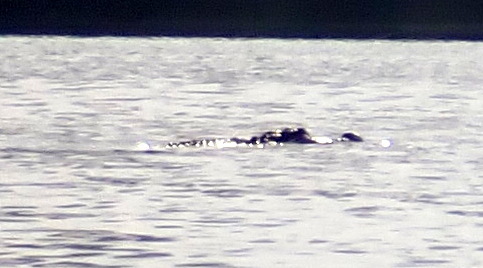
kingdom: Animalia
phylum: Chordata
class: Crocodylia
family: Alligatoridae
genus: Alligator
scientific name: Alligator mississippiensis
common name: American alligator
